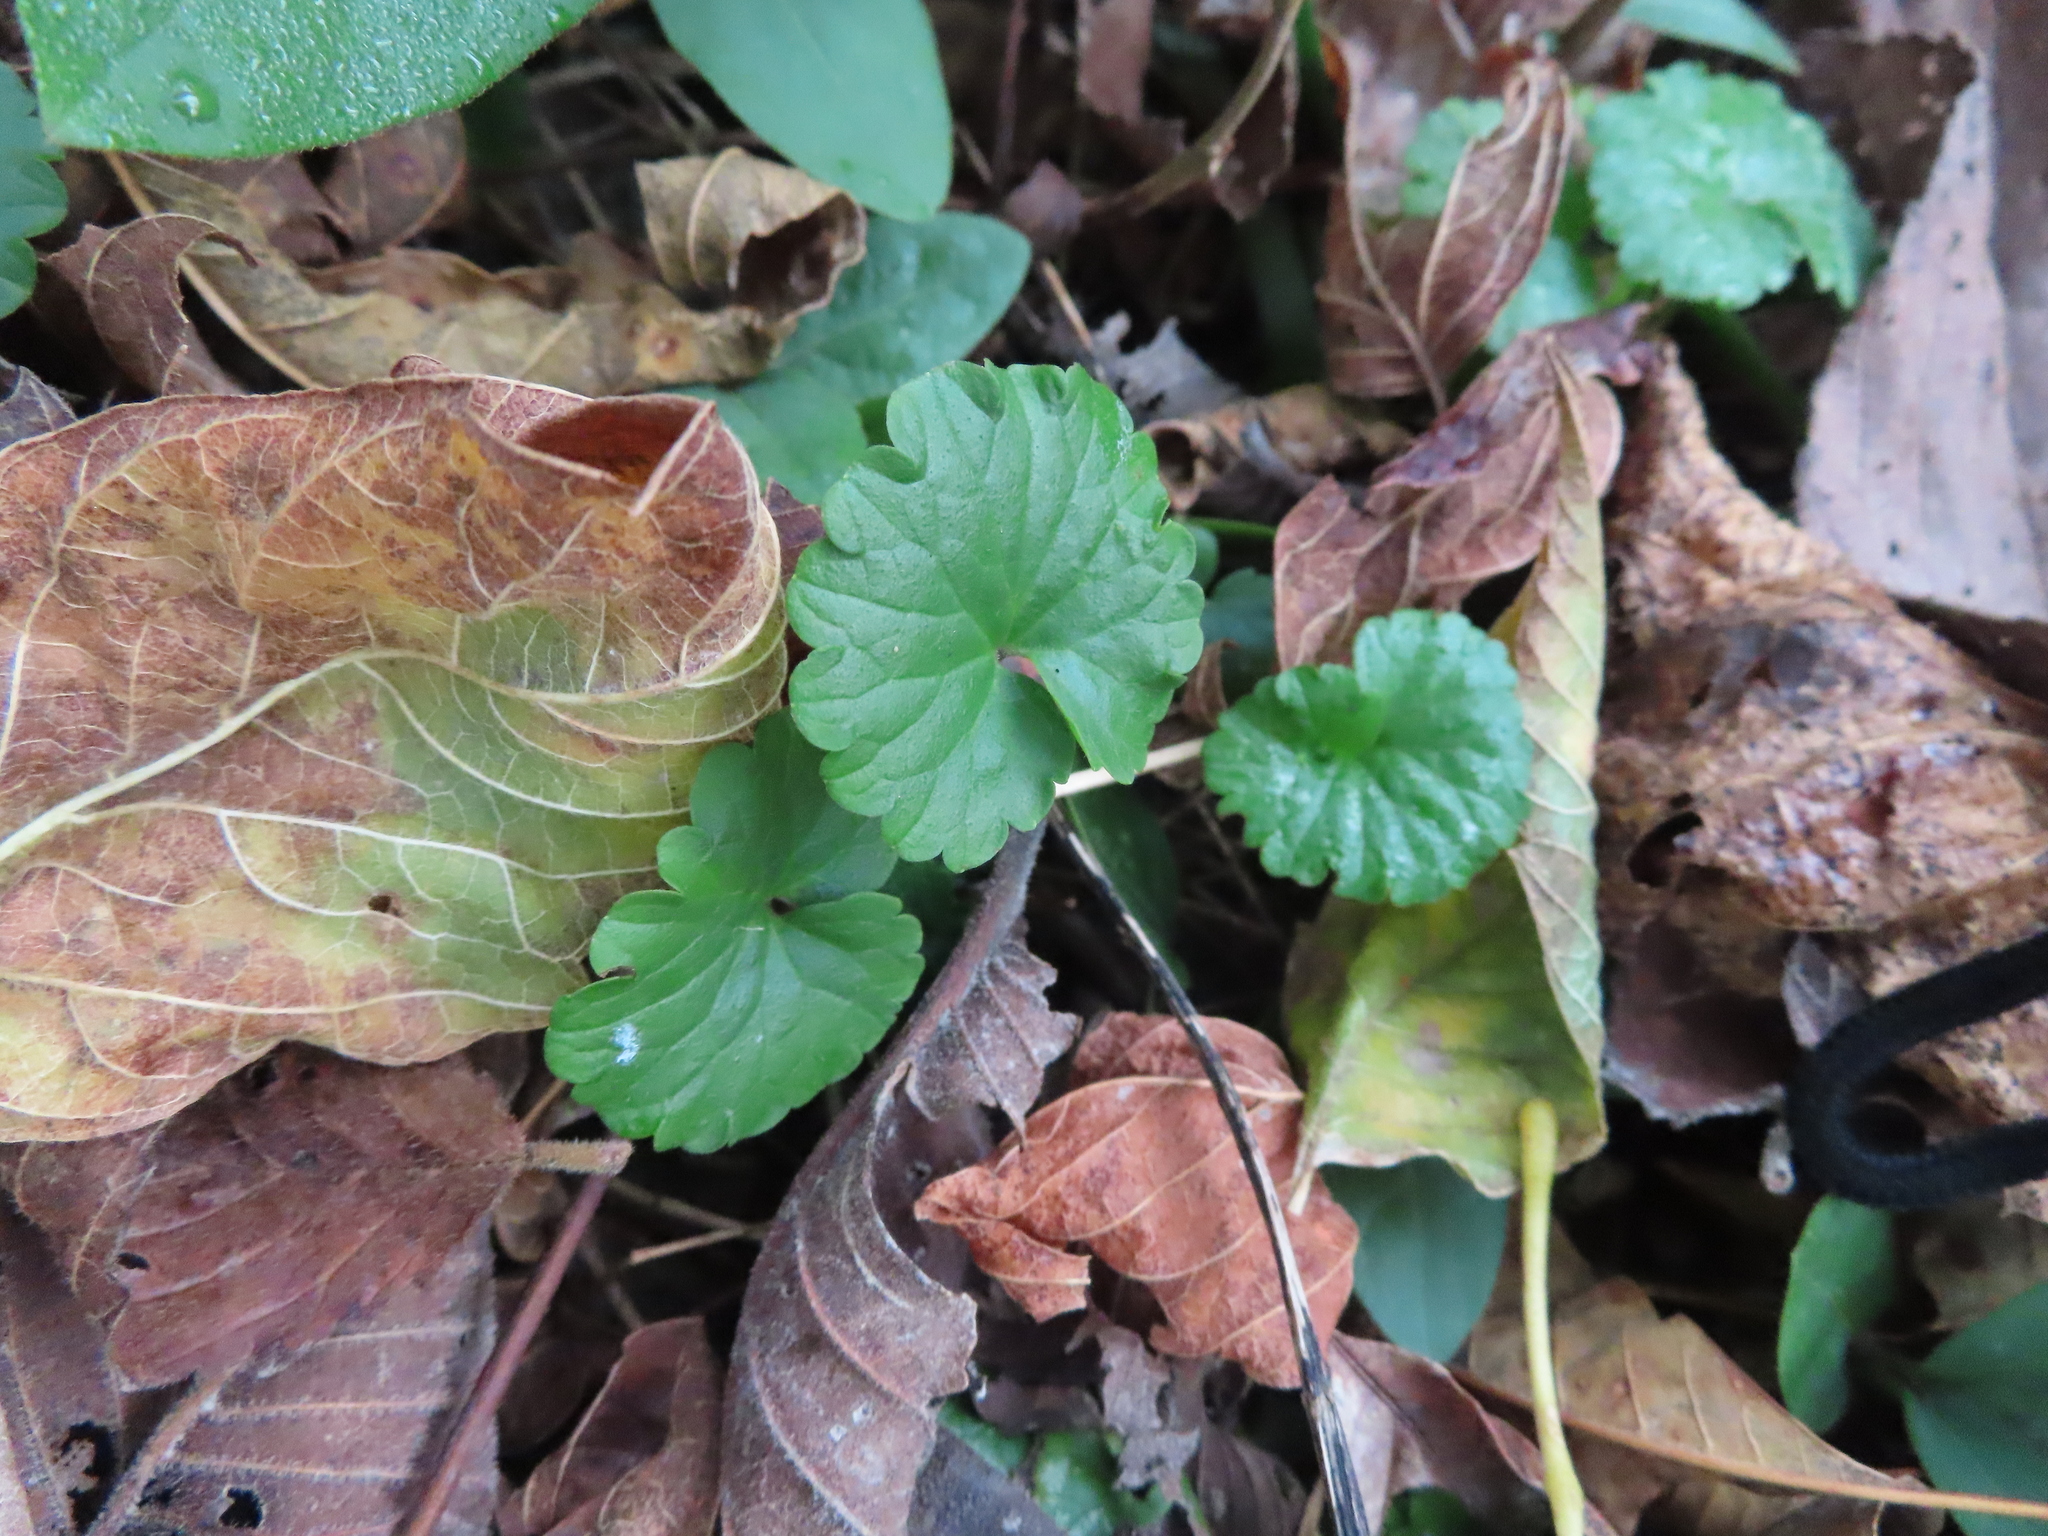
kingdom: Plantae
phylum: Tracheophyta
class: Magnoliopsida
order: Lamiales
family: Lamiaceae
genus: Glechoma
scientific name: Glechoma hederacea
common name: Ground ivy
